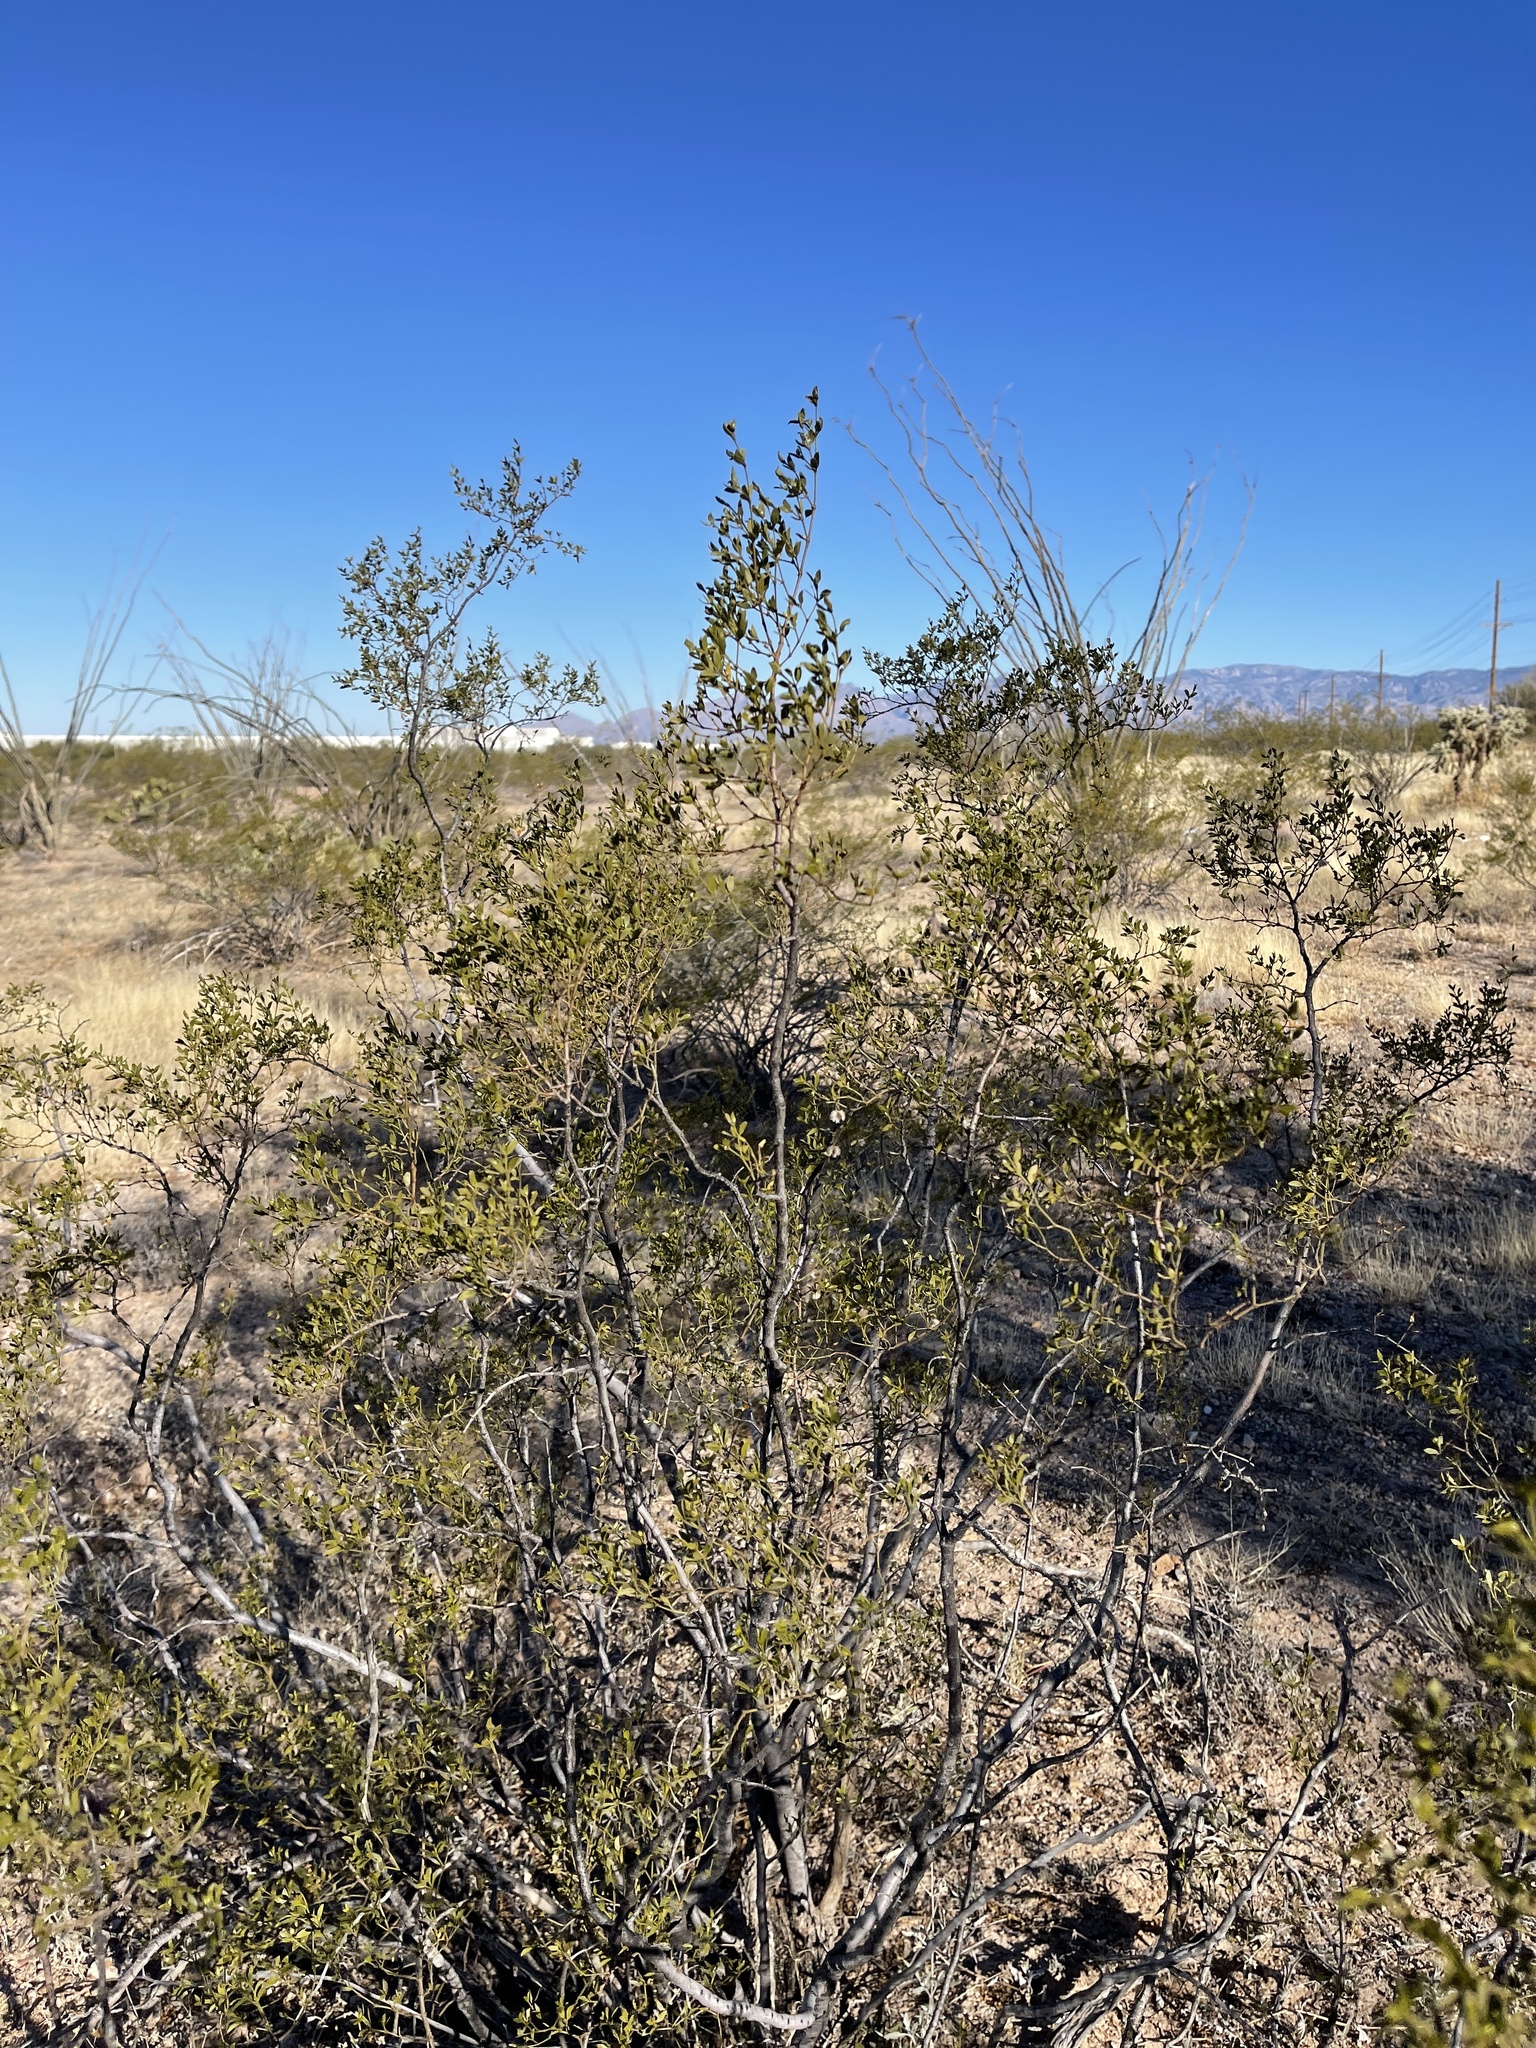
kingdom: Plantae
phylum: Tracheophyta
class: Magnoliopsida
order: Zygophyllales
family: Zygophyllaceae
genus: Larrea
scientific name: Larrea tridentata
